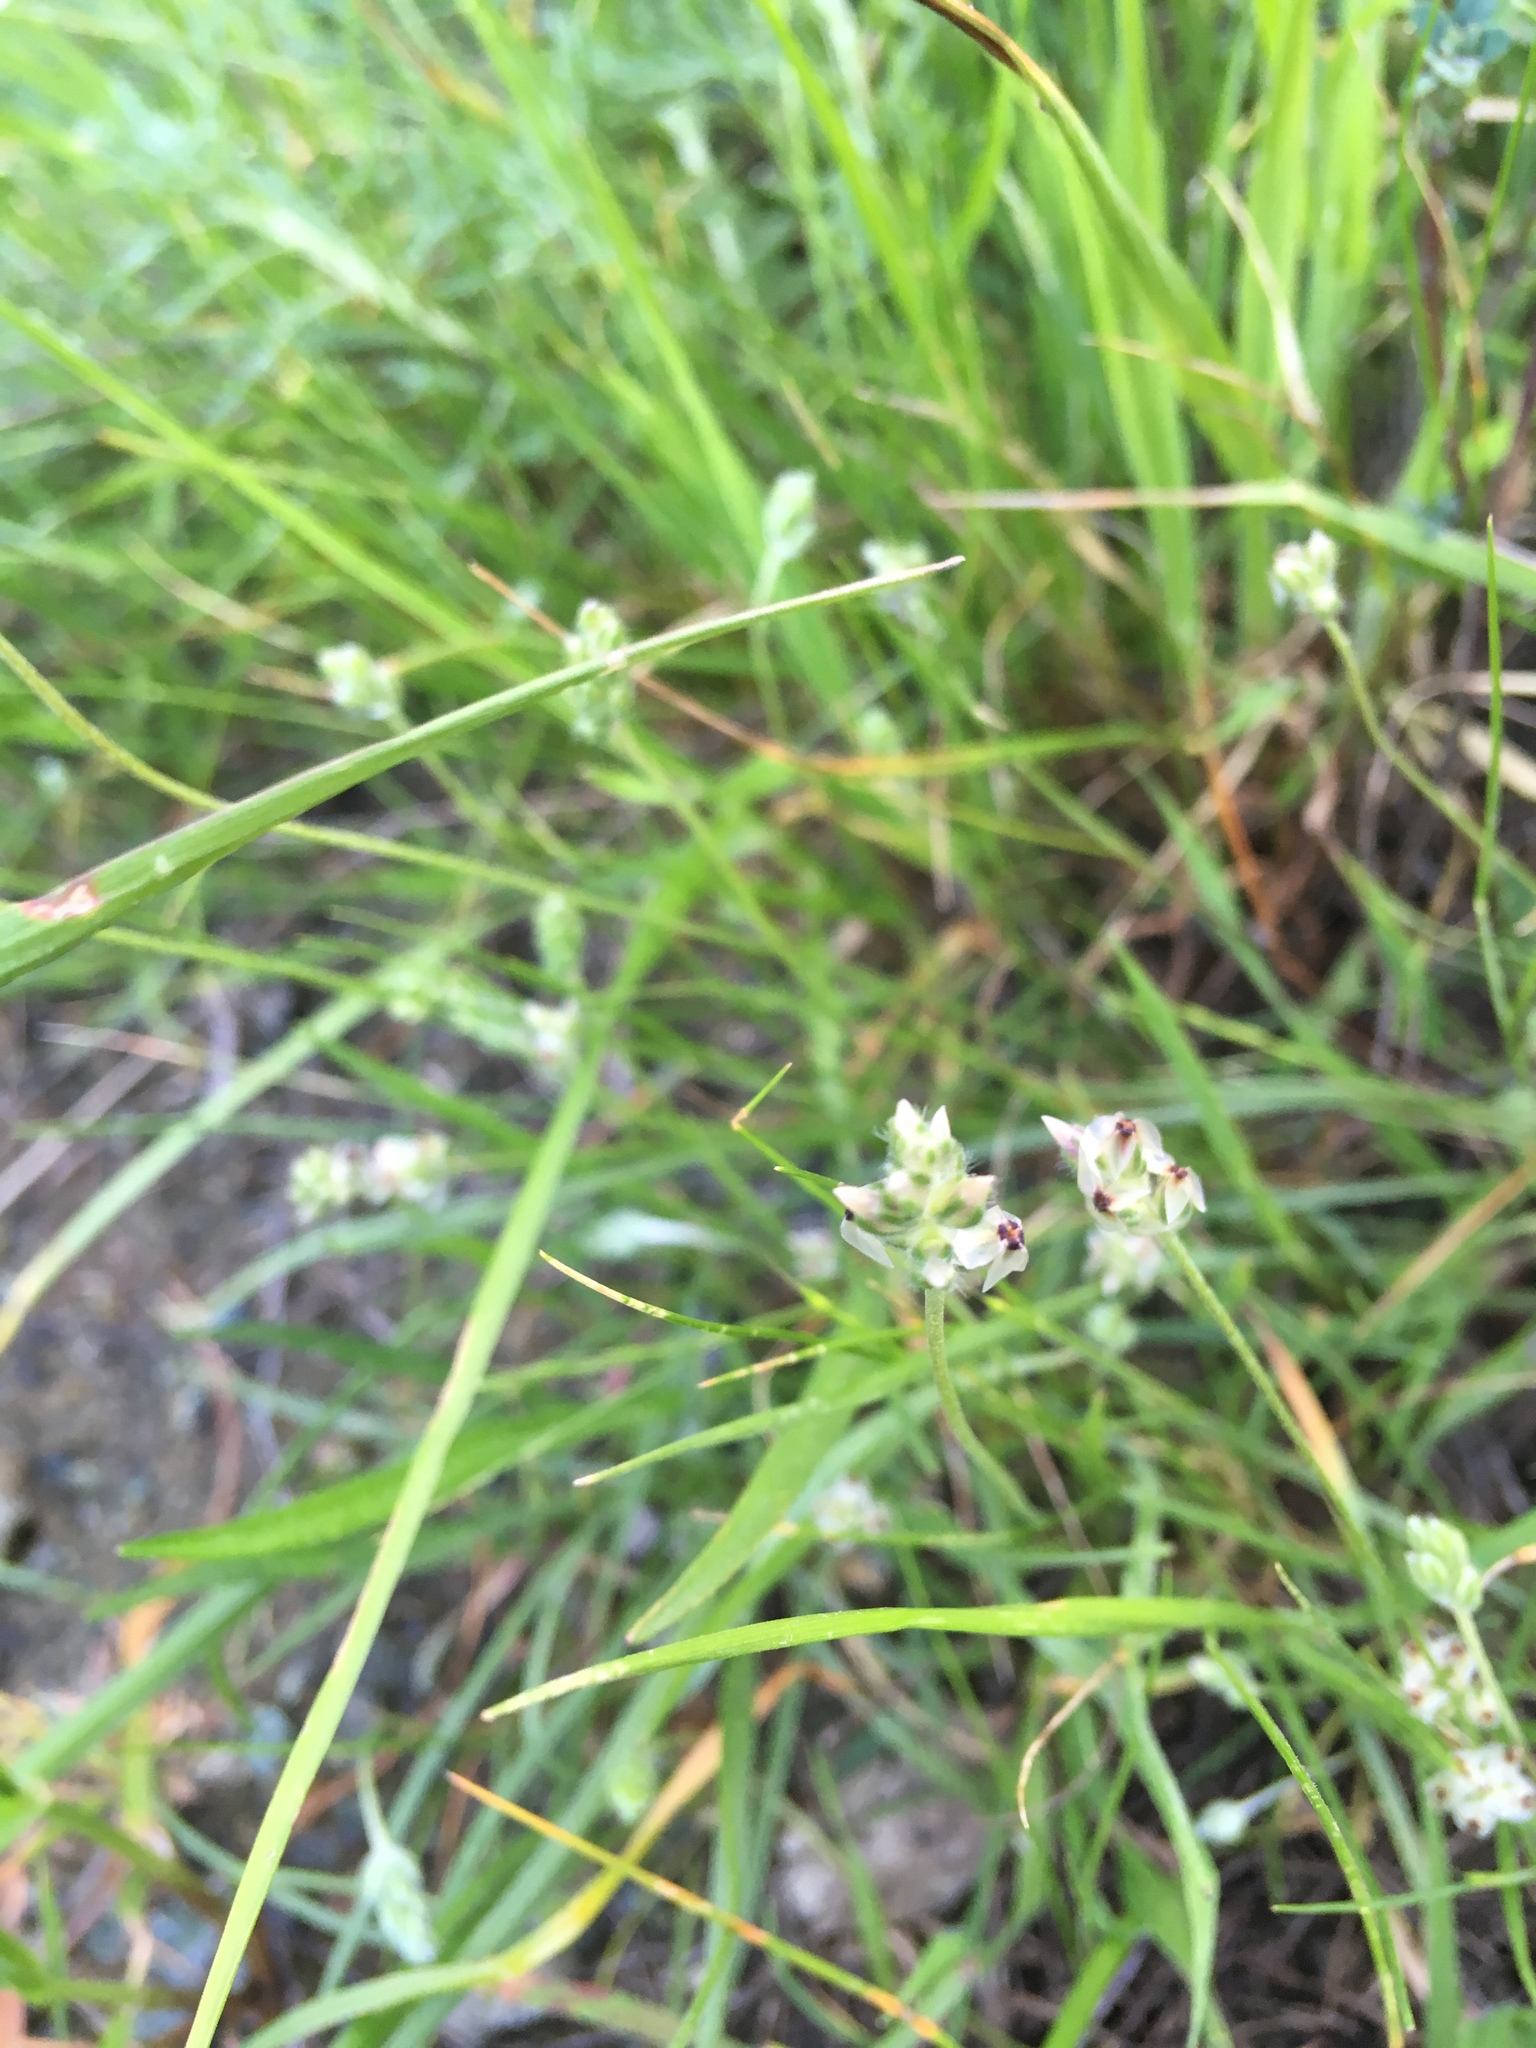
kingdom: Plantae
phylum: Tracheophyta
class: Magnoliopsida
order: Lamiales
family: Plantaginaceae
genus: Plantago
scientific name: Plantago erecta
